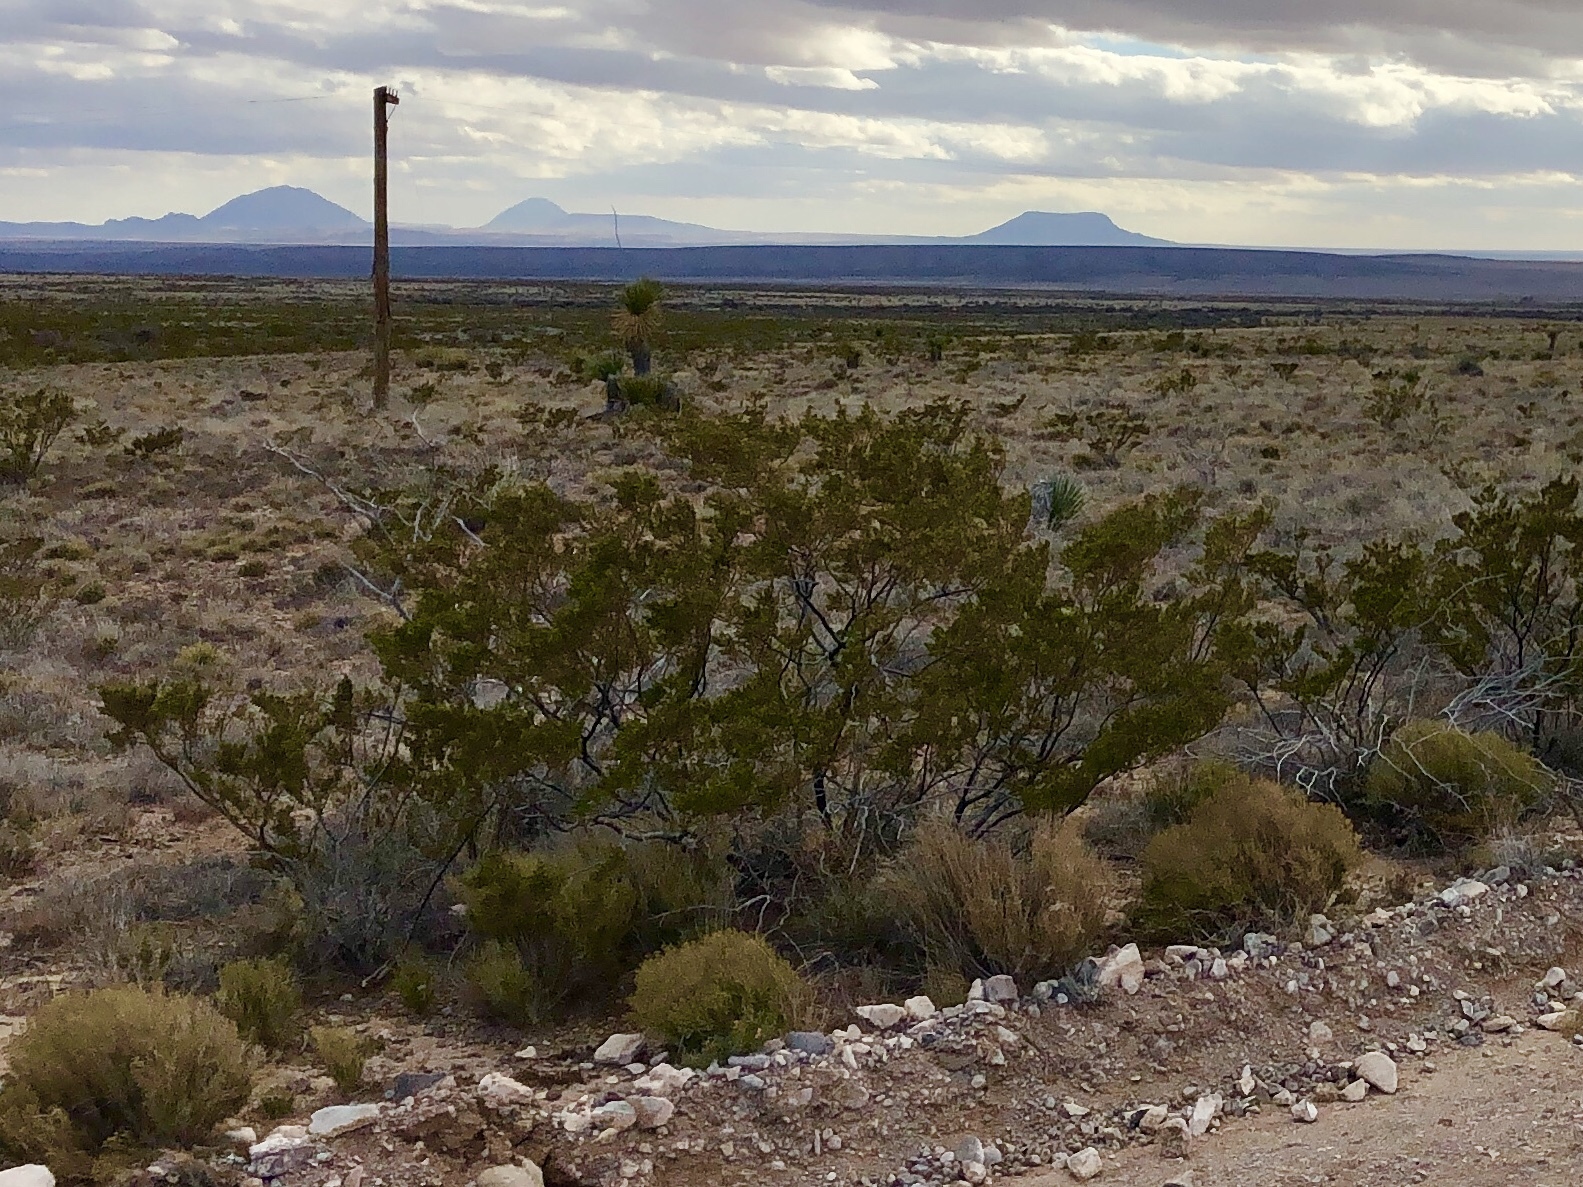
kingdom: Plantae
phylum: Tracheophyta
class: Magnoliopsida
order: Zygophyllales
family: Zygophyllaceae
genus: Larrea
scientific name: Larrea tridentata
